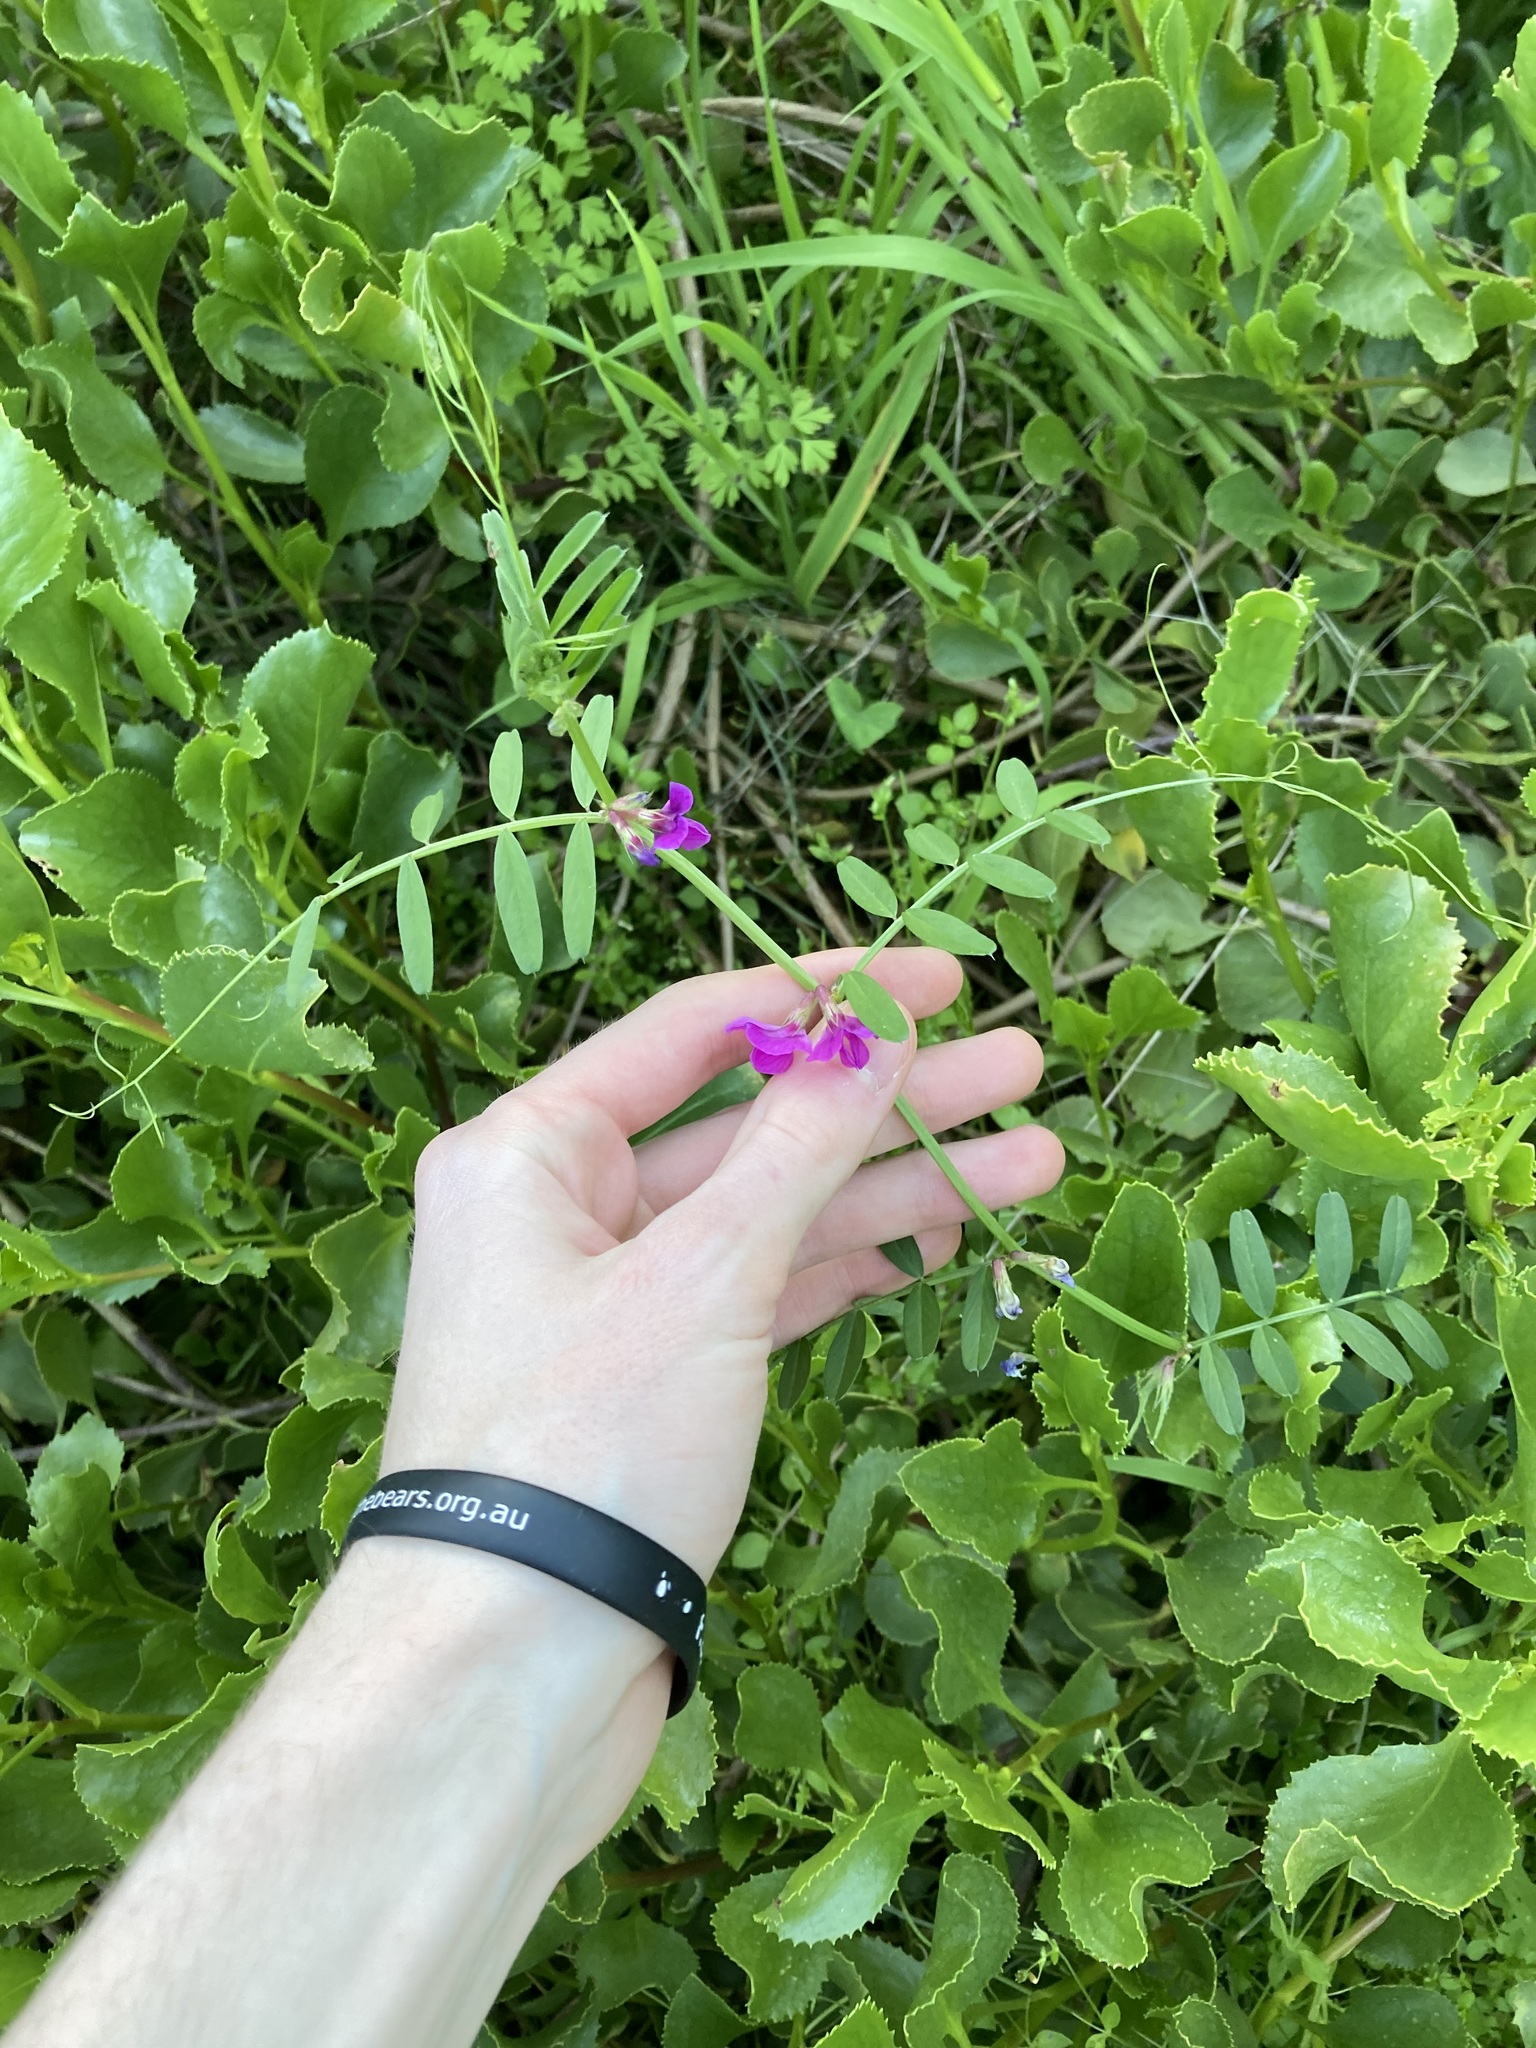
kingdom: Plantae
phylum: Tracheophyta
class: Magnoliopsida
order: Fabales
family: Fabaceae
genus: Vicia
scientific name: Vicia sativa
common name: Garden vetch
